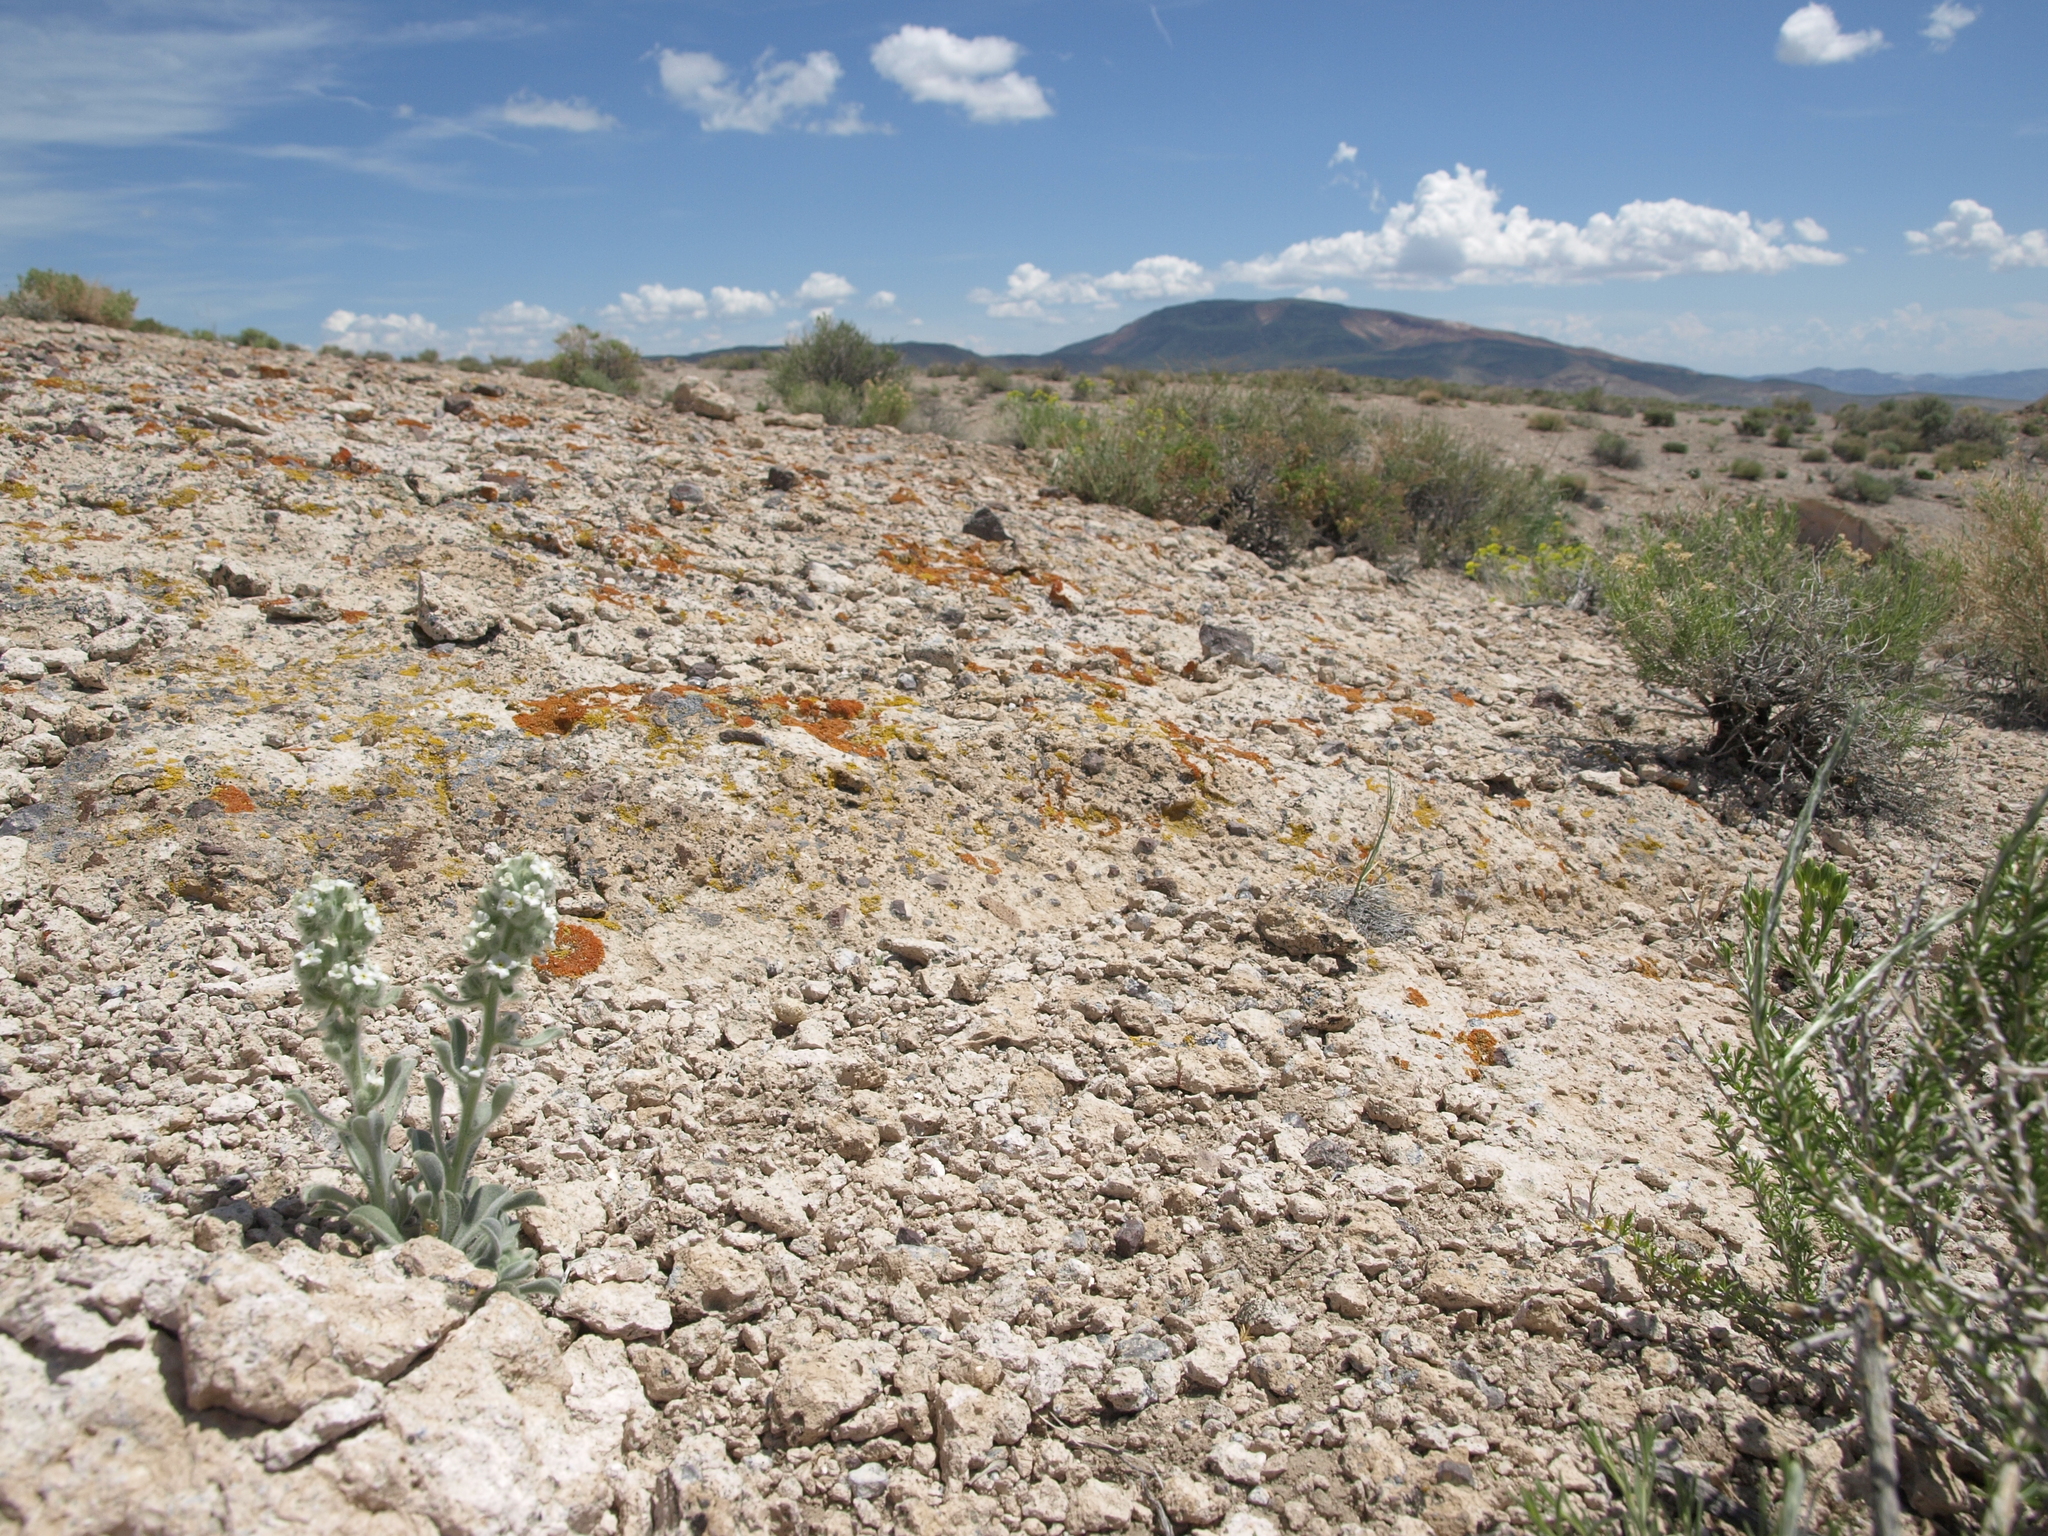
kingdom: Plantae
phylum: Tracheophyta
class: Magnoliopsida
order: Boraginales
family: Boraginaceae
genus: Oreocarya
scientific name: Oreocarya hoffmannii
